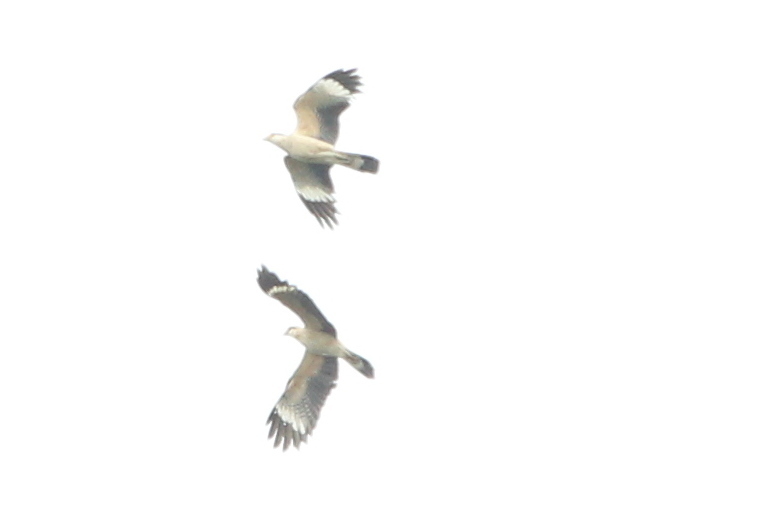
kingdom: Animalia
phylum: Chordata
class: Aves
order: Falconiformes
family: Falconidae
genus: Daptrius
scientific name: Daptrius
